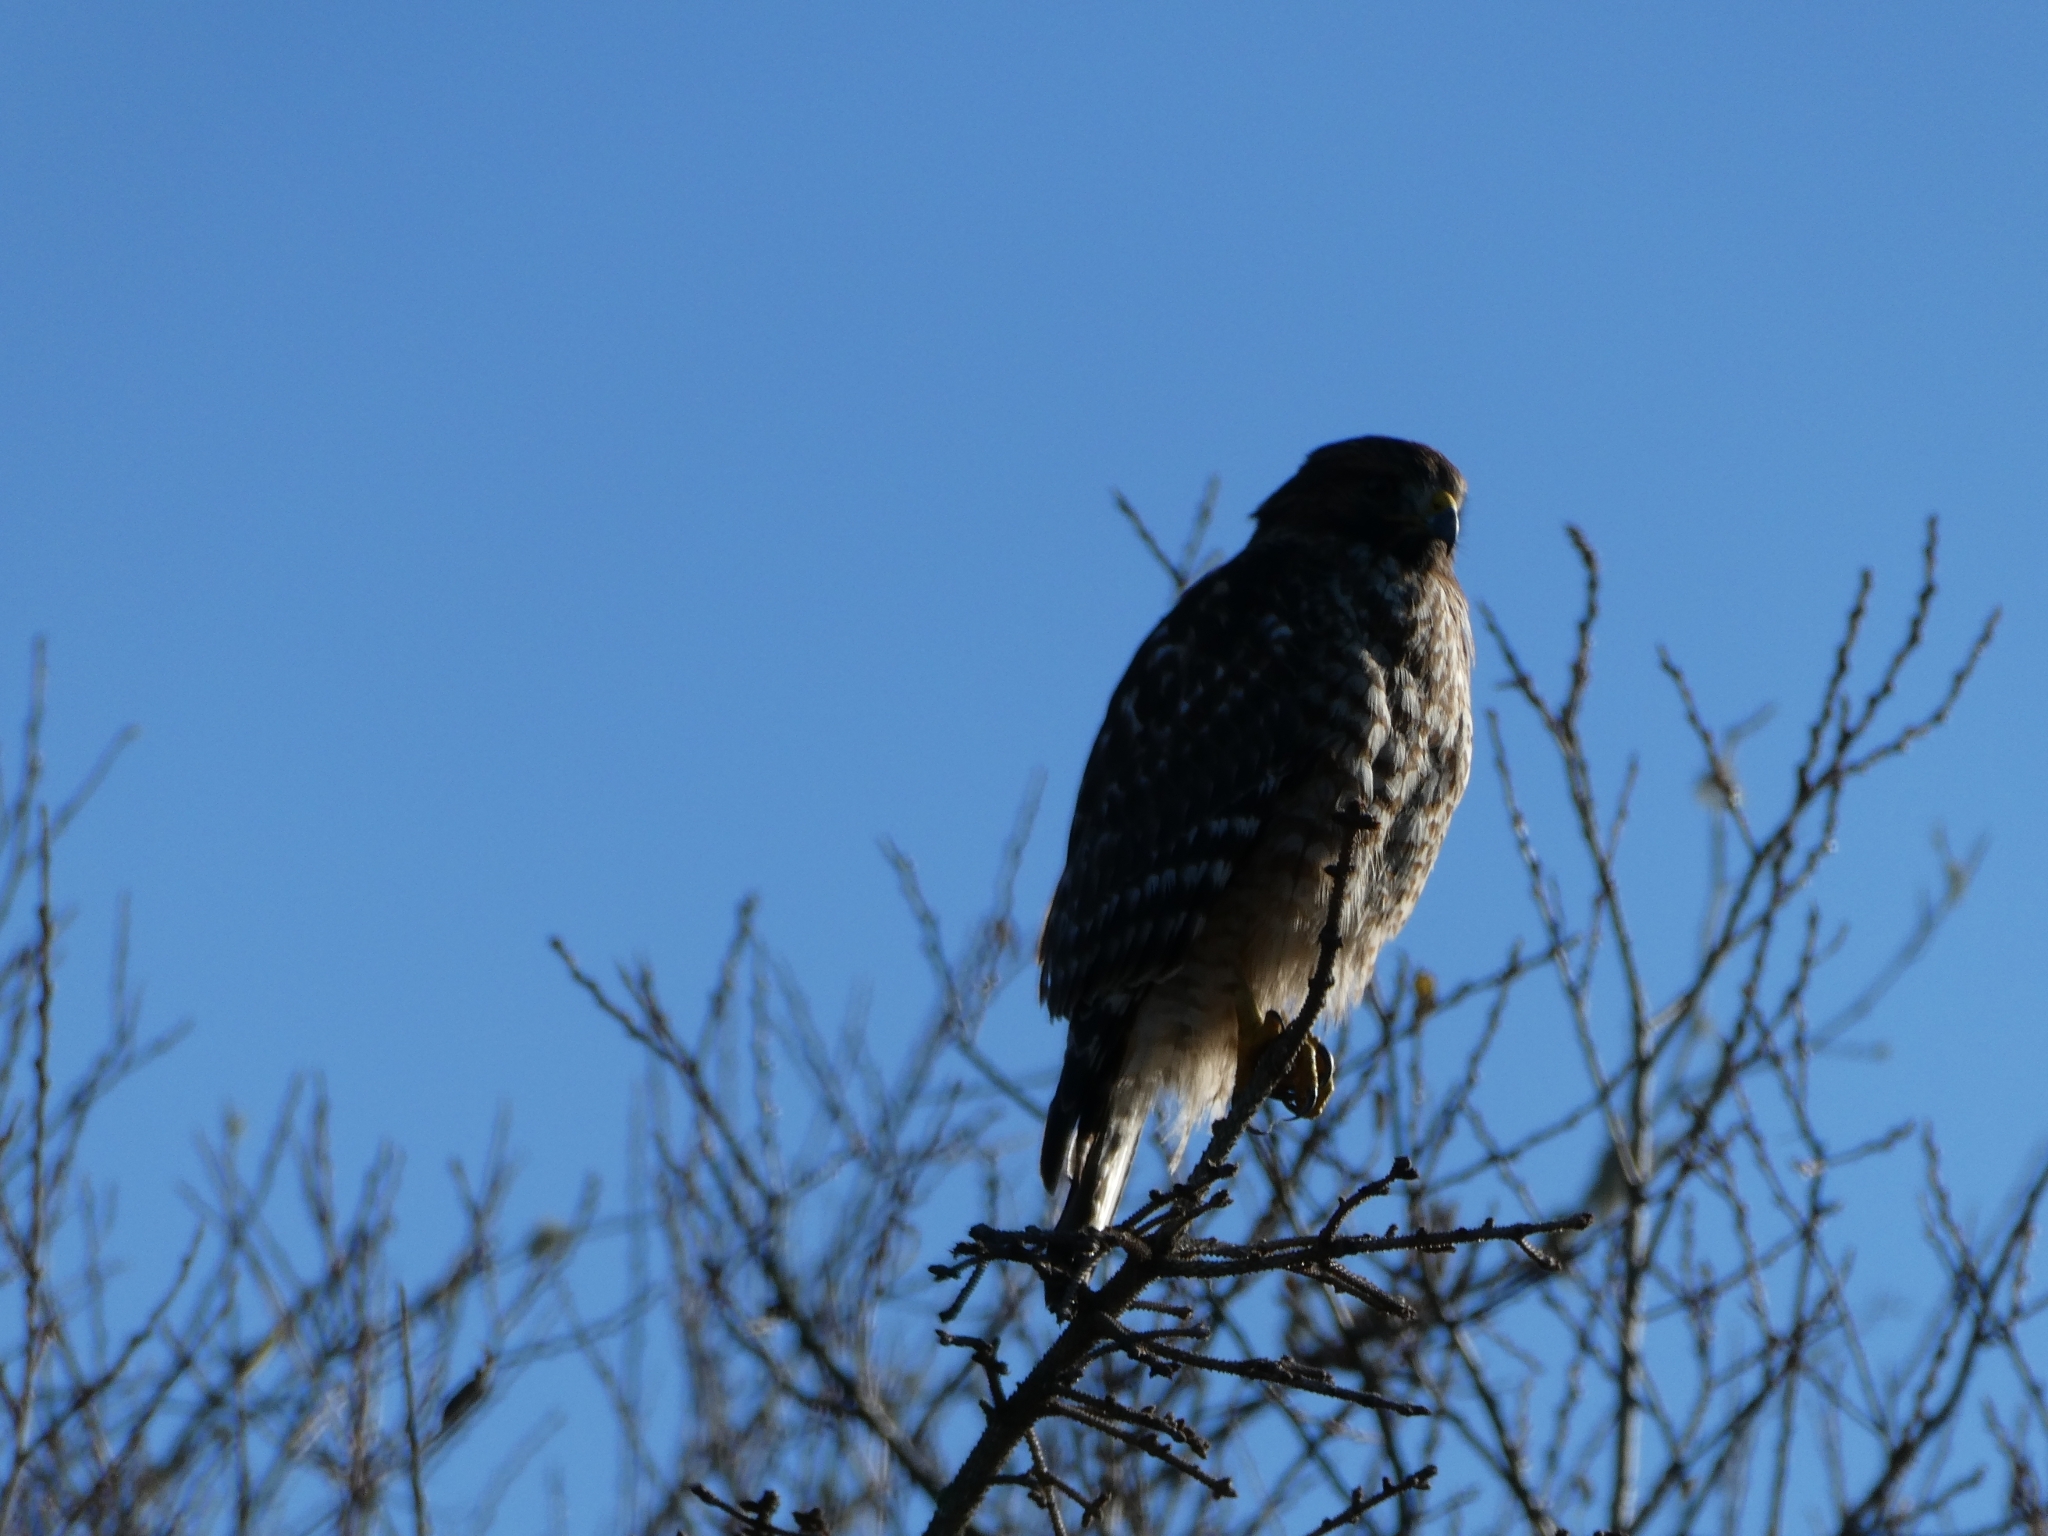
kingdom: Animalia
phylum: Chordata
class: Aves
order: Accipitriformes
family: Accipitridae
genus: Buteo
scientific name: Buteo lineatus
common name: Red-shouldered hawk
